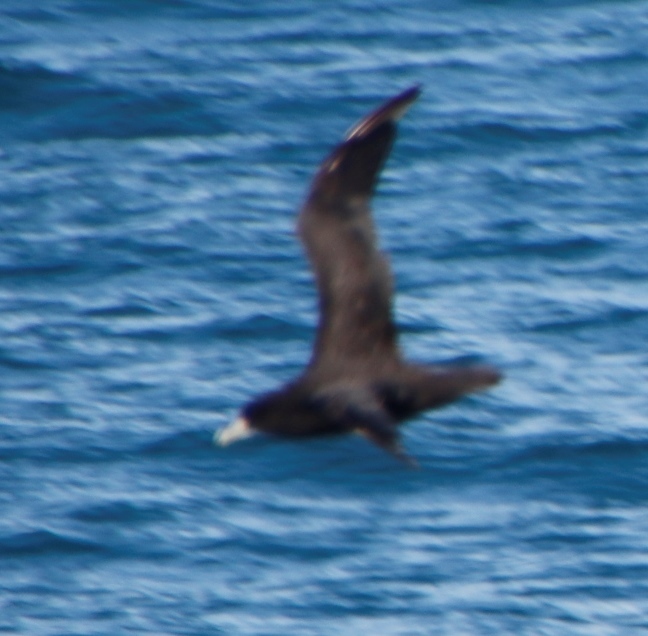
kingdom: Animalia
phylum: Chordata
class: Aves
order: Procellariiformes
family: Procellariidae
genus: Procellaria
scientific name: Procellaria aequinoctialis
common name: White-chinned petrel
